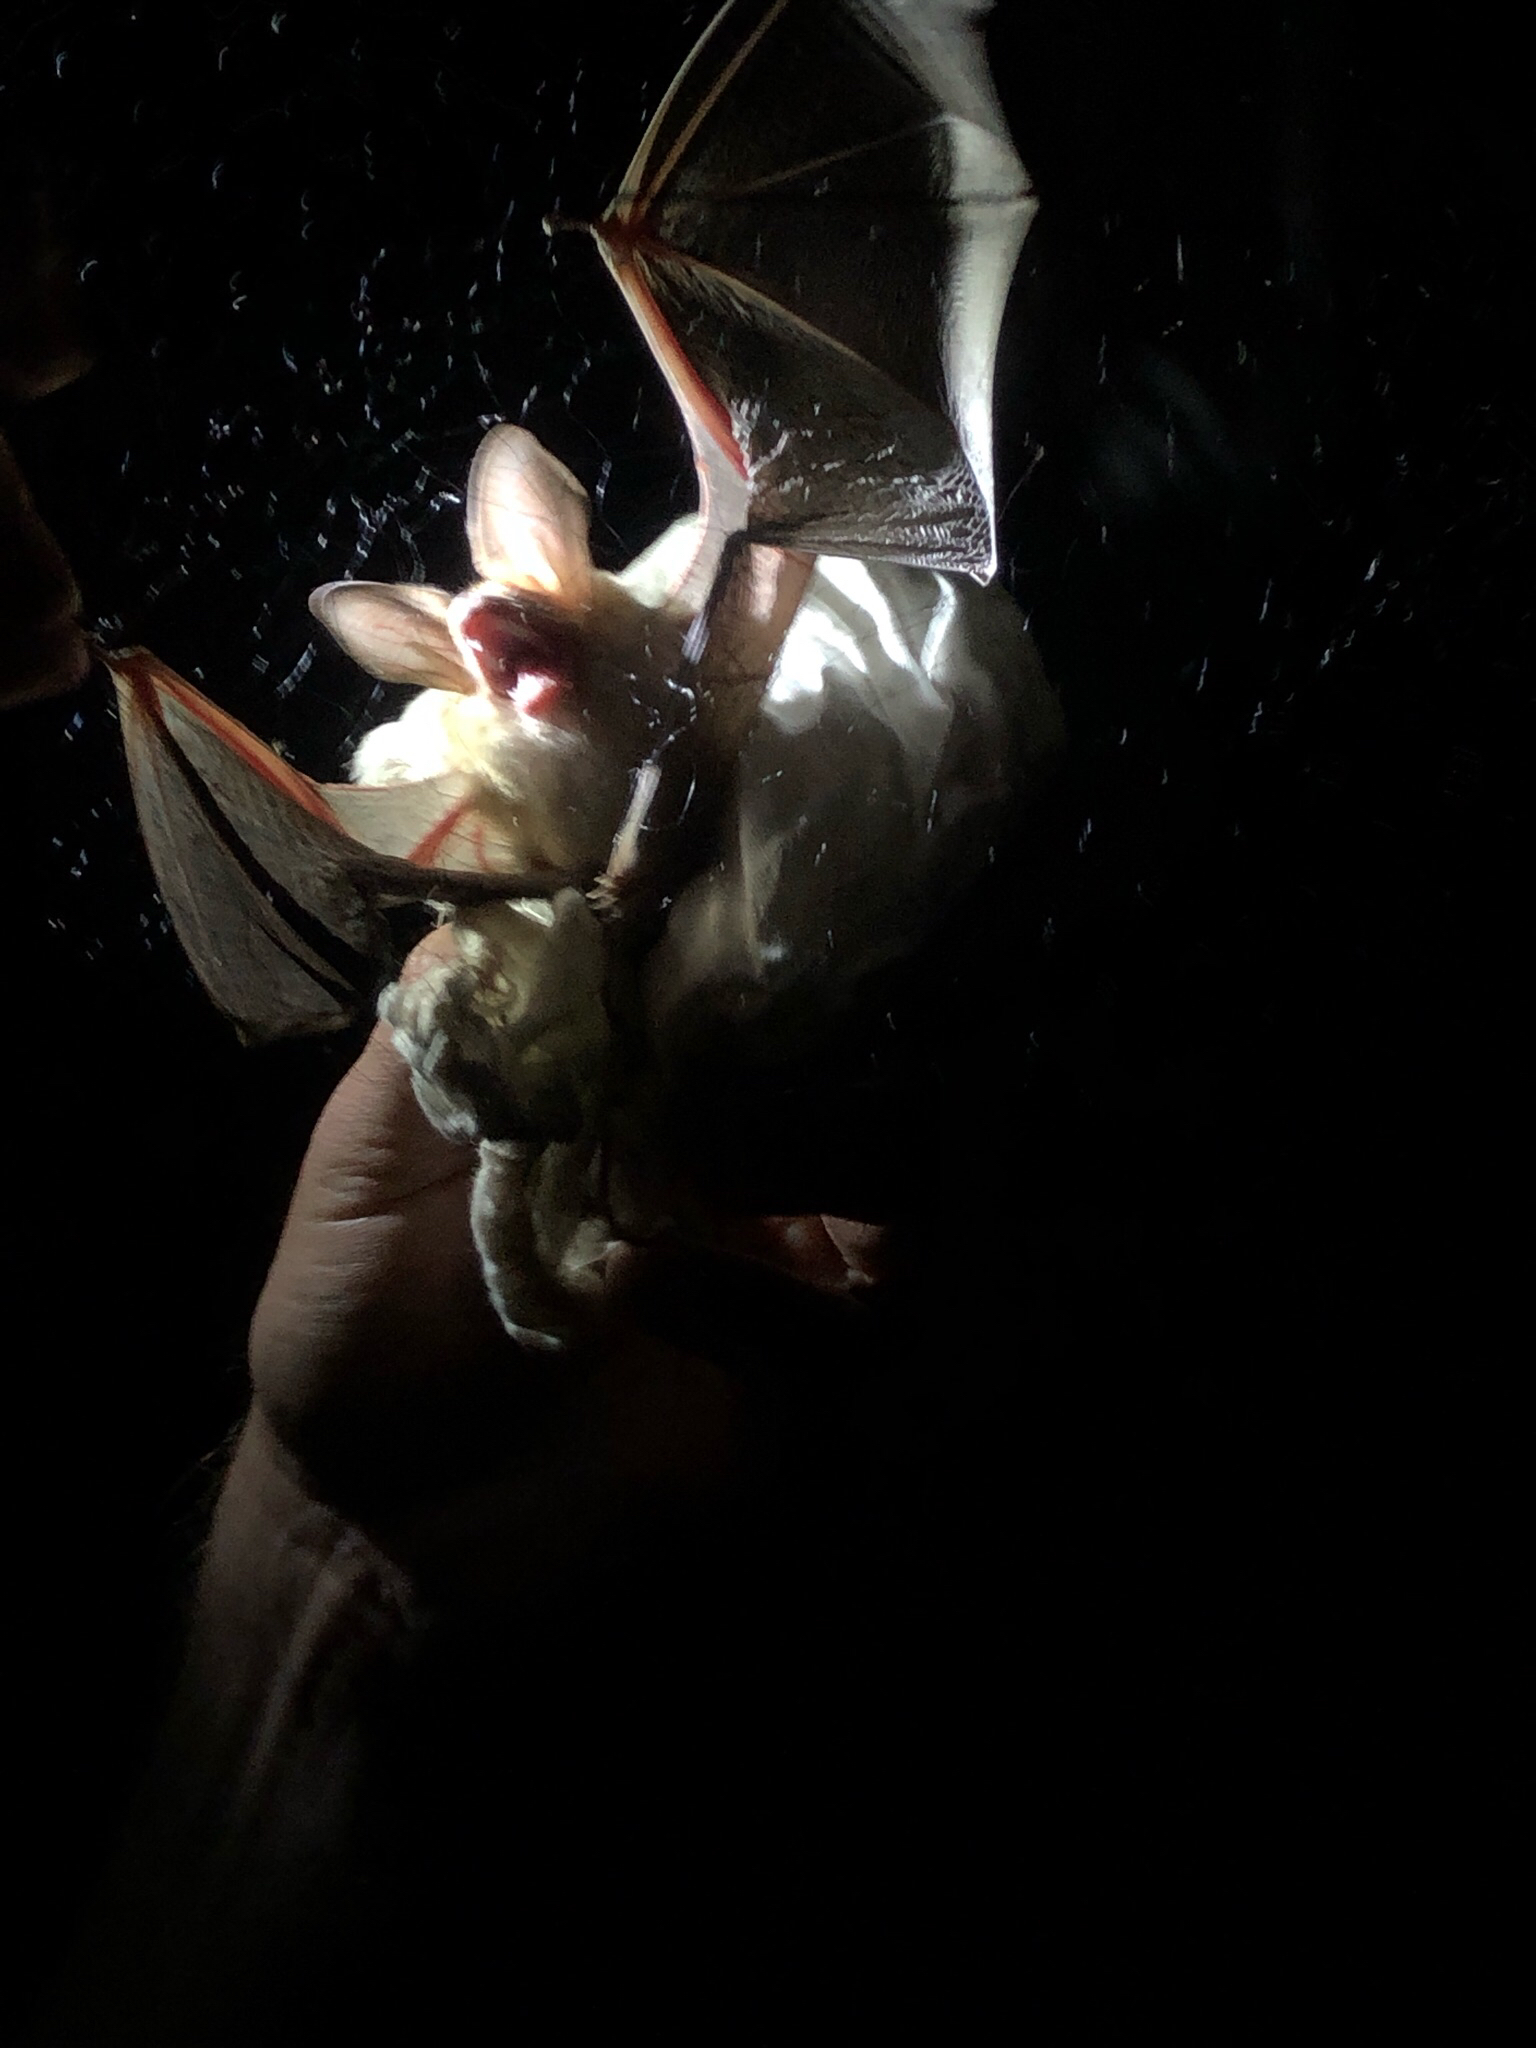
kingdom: Animalia
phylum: Chordata
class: Mammalia
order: Chiroptera
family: Vespertilionidae
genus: Antrozous
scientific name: Antrozous pallidus
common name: Pallid bat
